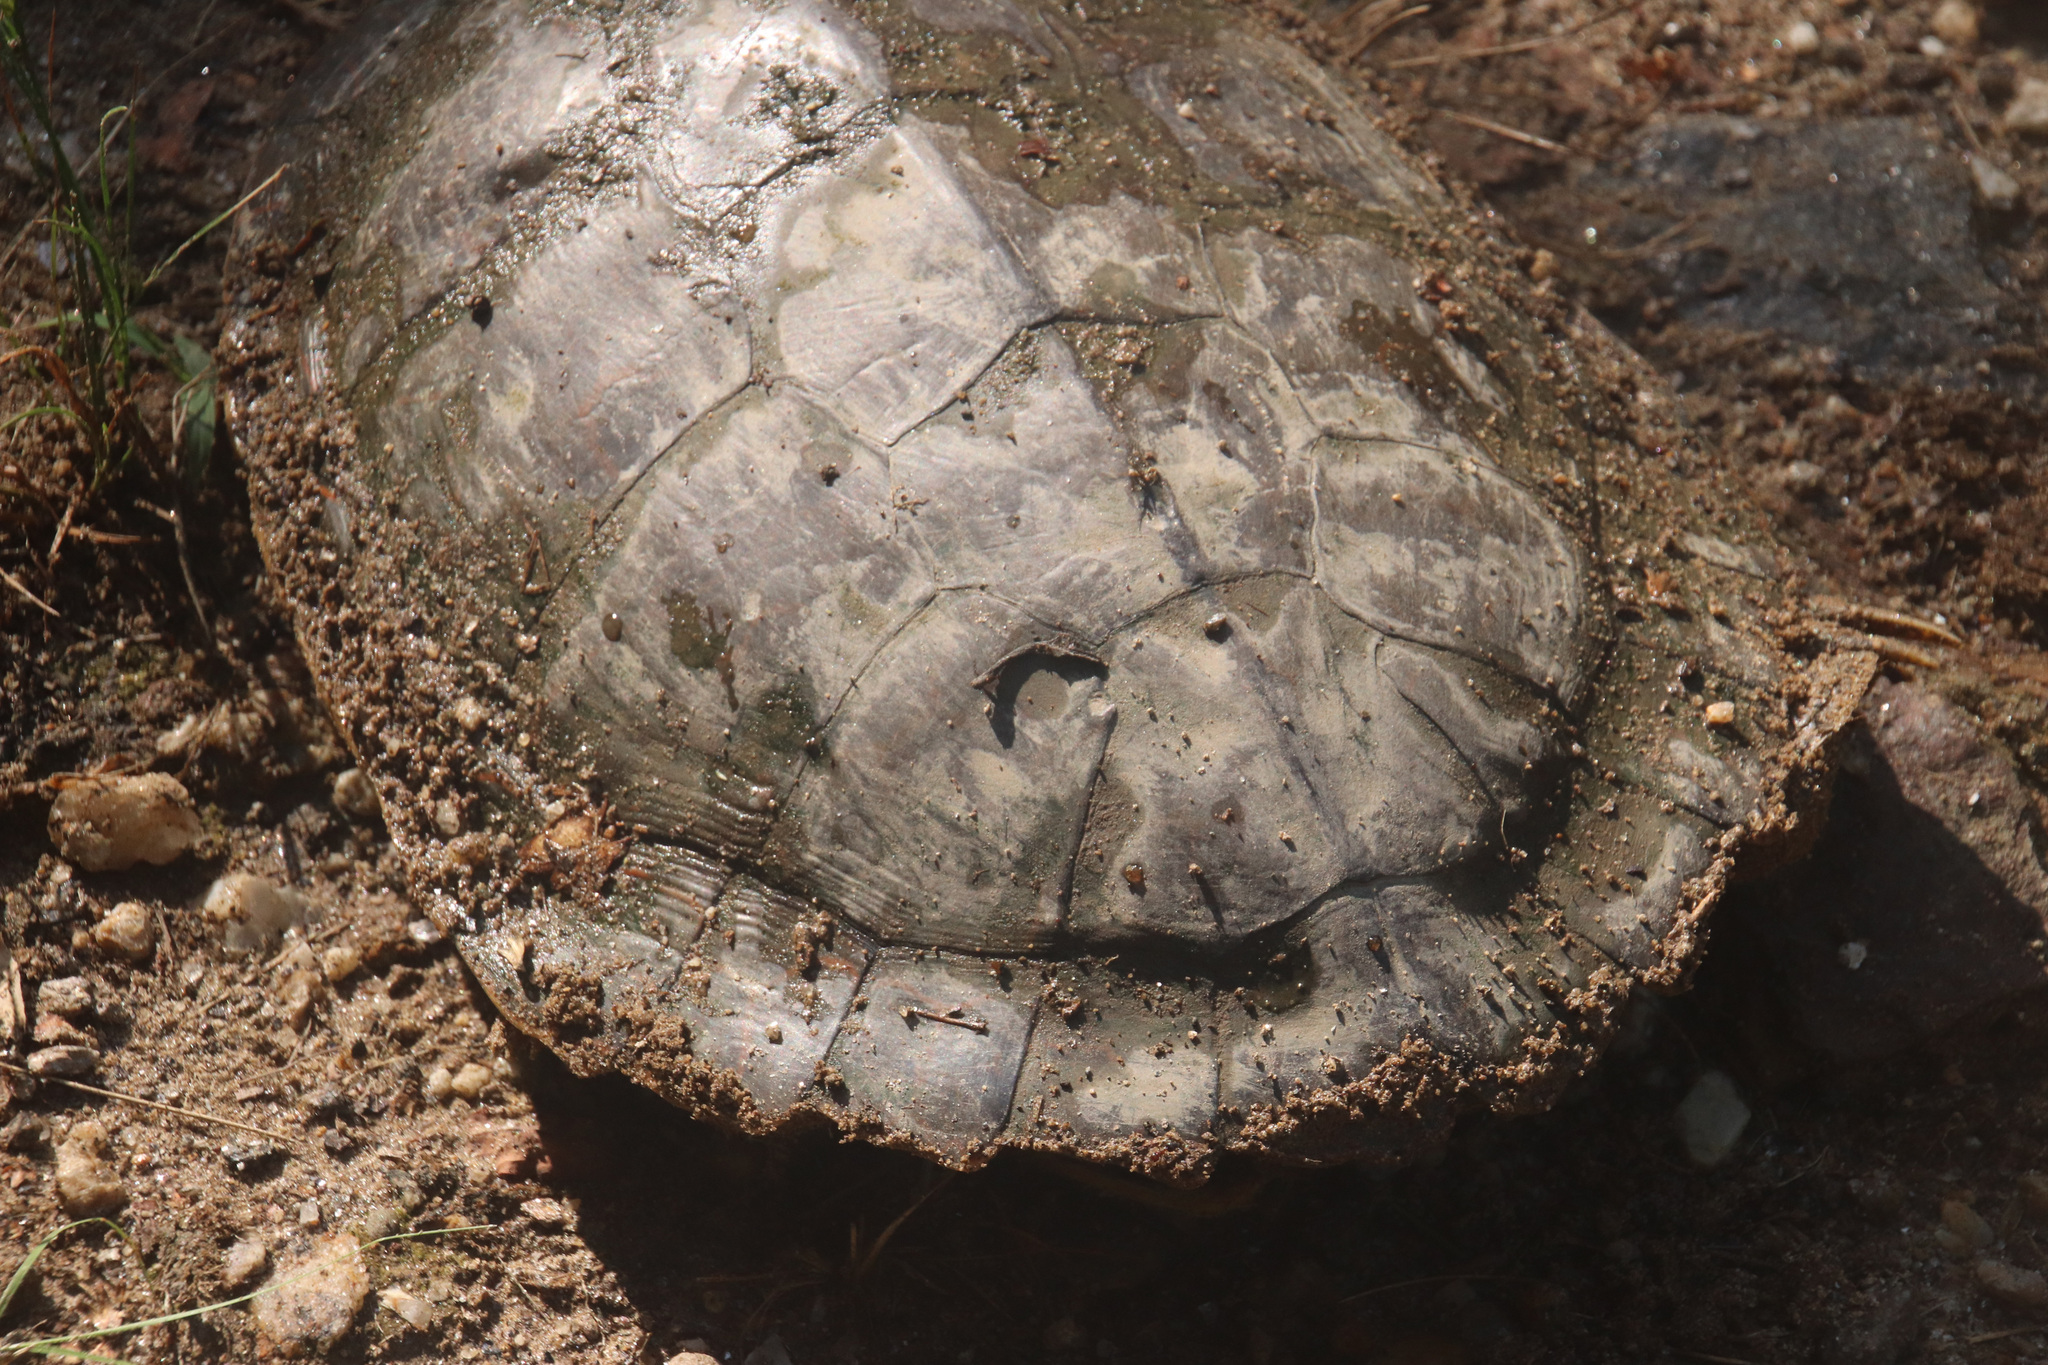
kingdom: Animalia
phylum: Chordata
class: Testudines
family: Emydidae
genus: Graptemys
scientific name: Graptemys geographica
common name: Common map turtle
